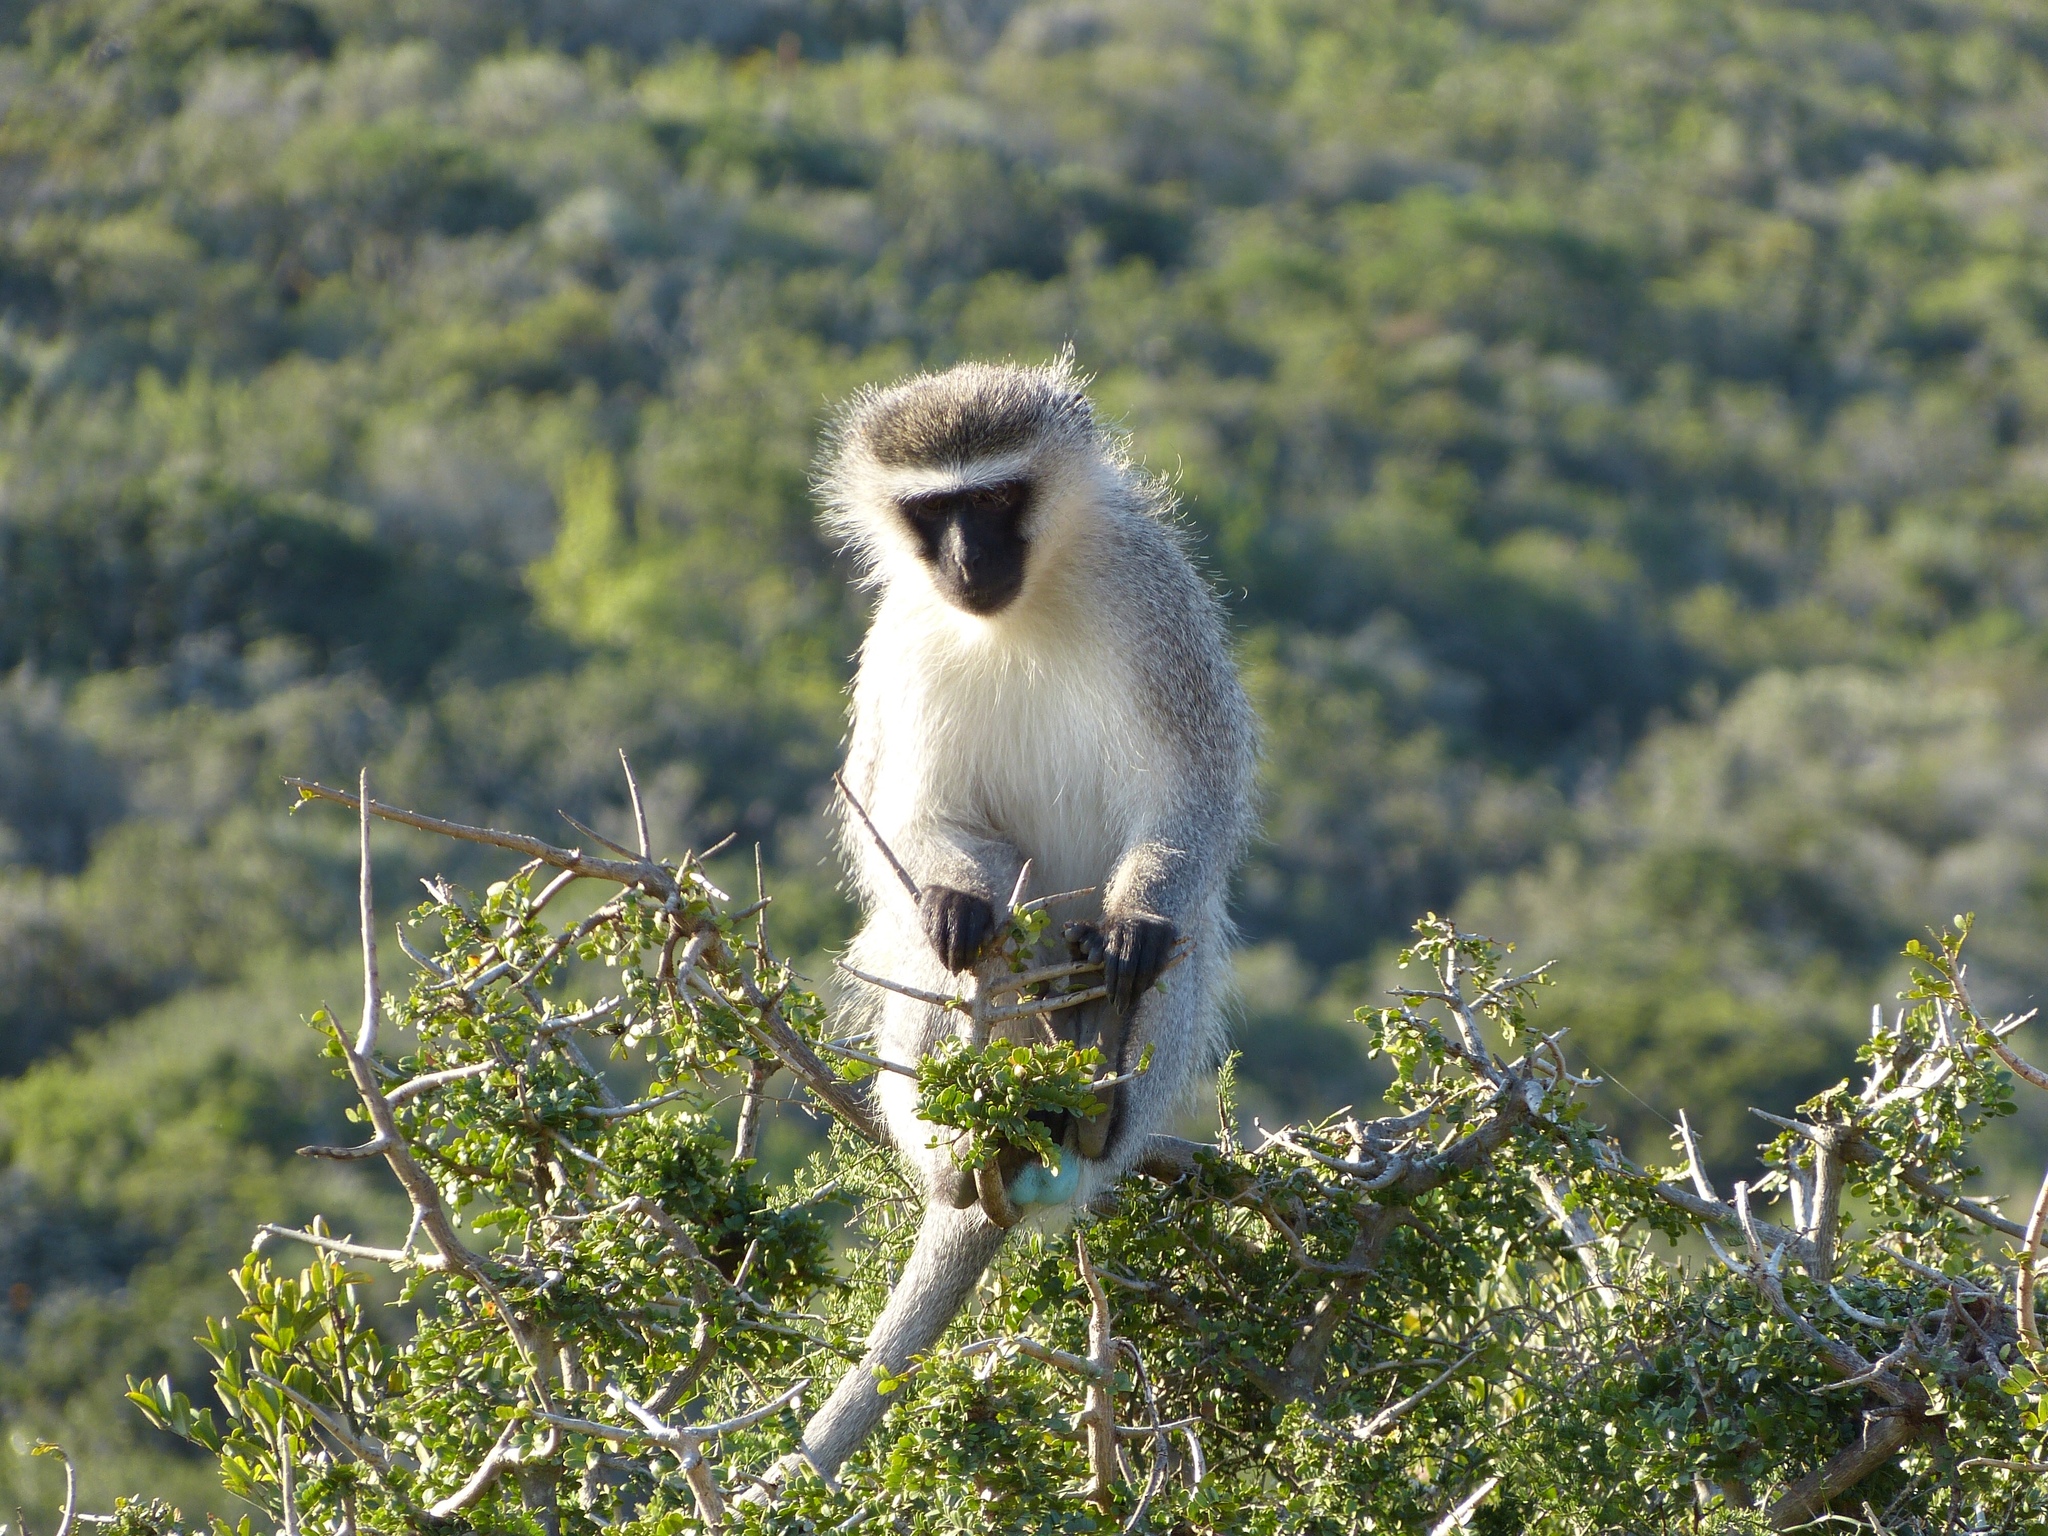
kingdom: Animalia
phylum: Chordata
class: Mammalia
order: Primates
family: Cercopithecidae
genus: Chlorocebus
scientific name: Chlorocebus pygerythrus
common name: Vervet monkey
